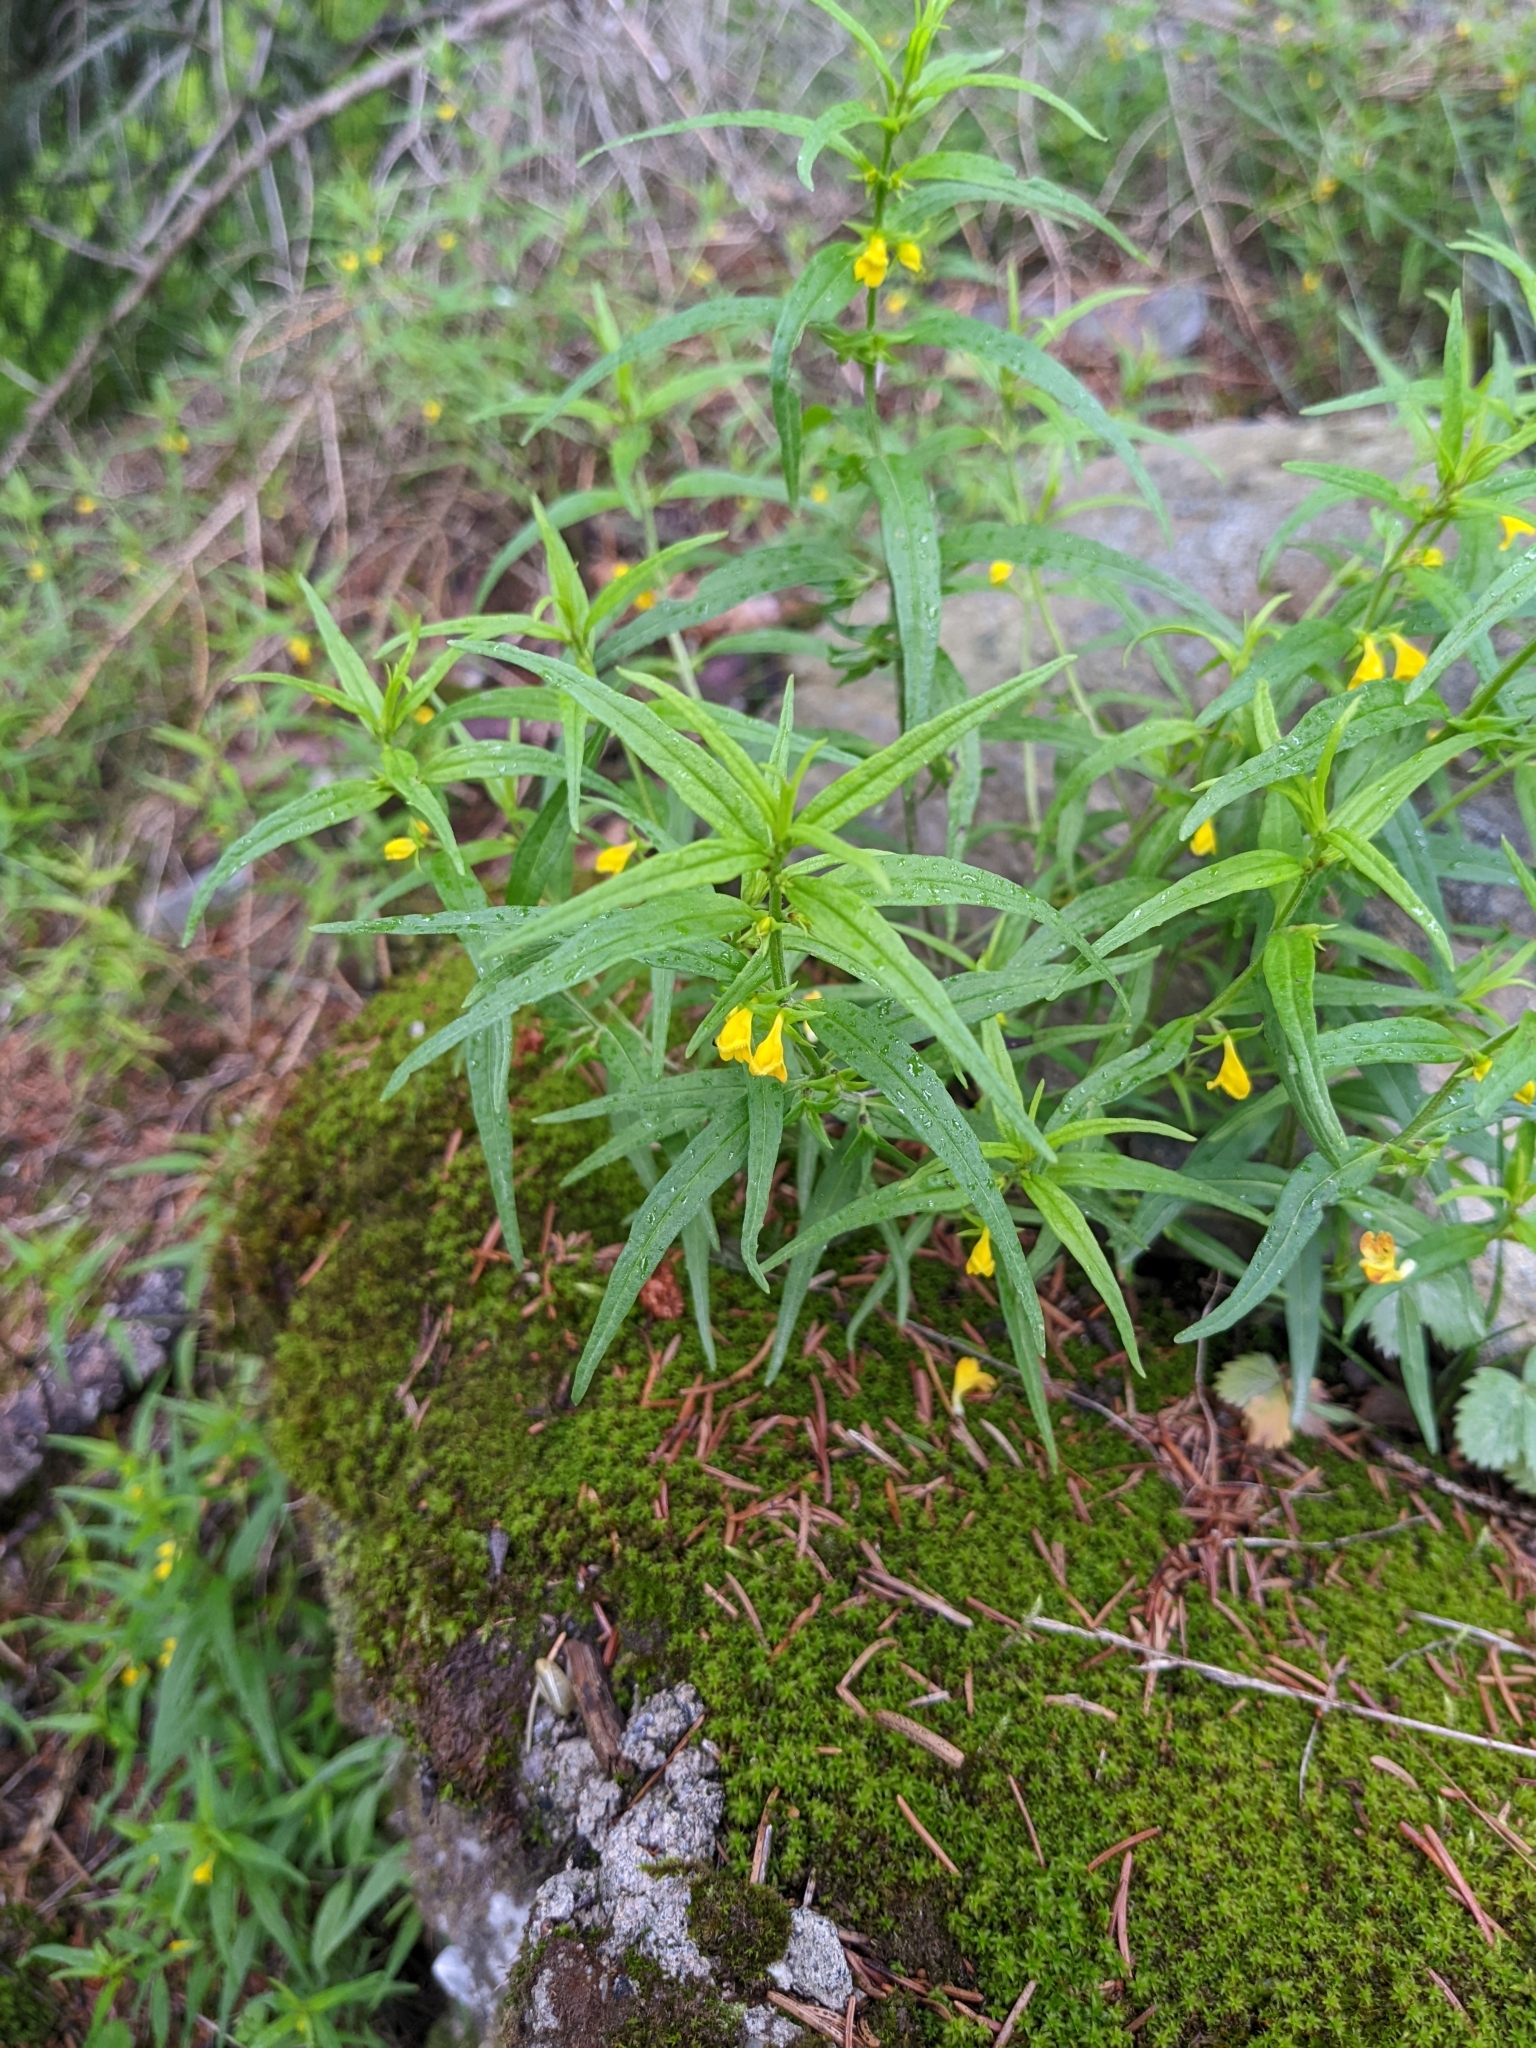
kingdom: Plantae
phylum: Tracheophyta
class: Magnoliopsida
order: Lamiales
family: Orobanchaceae
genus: Melampyrum
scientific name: Melampyrum sylvaticum
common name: Small cow-wheat
